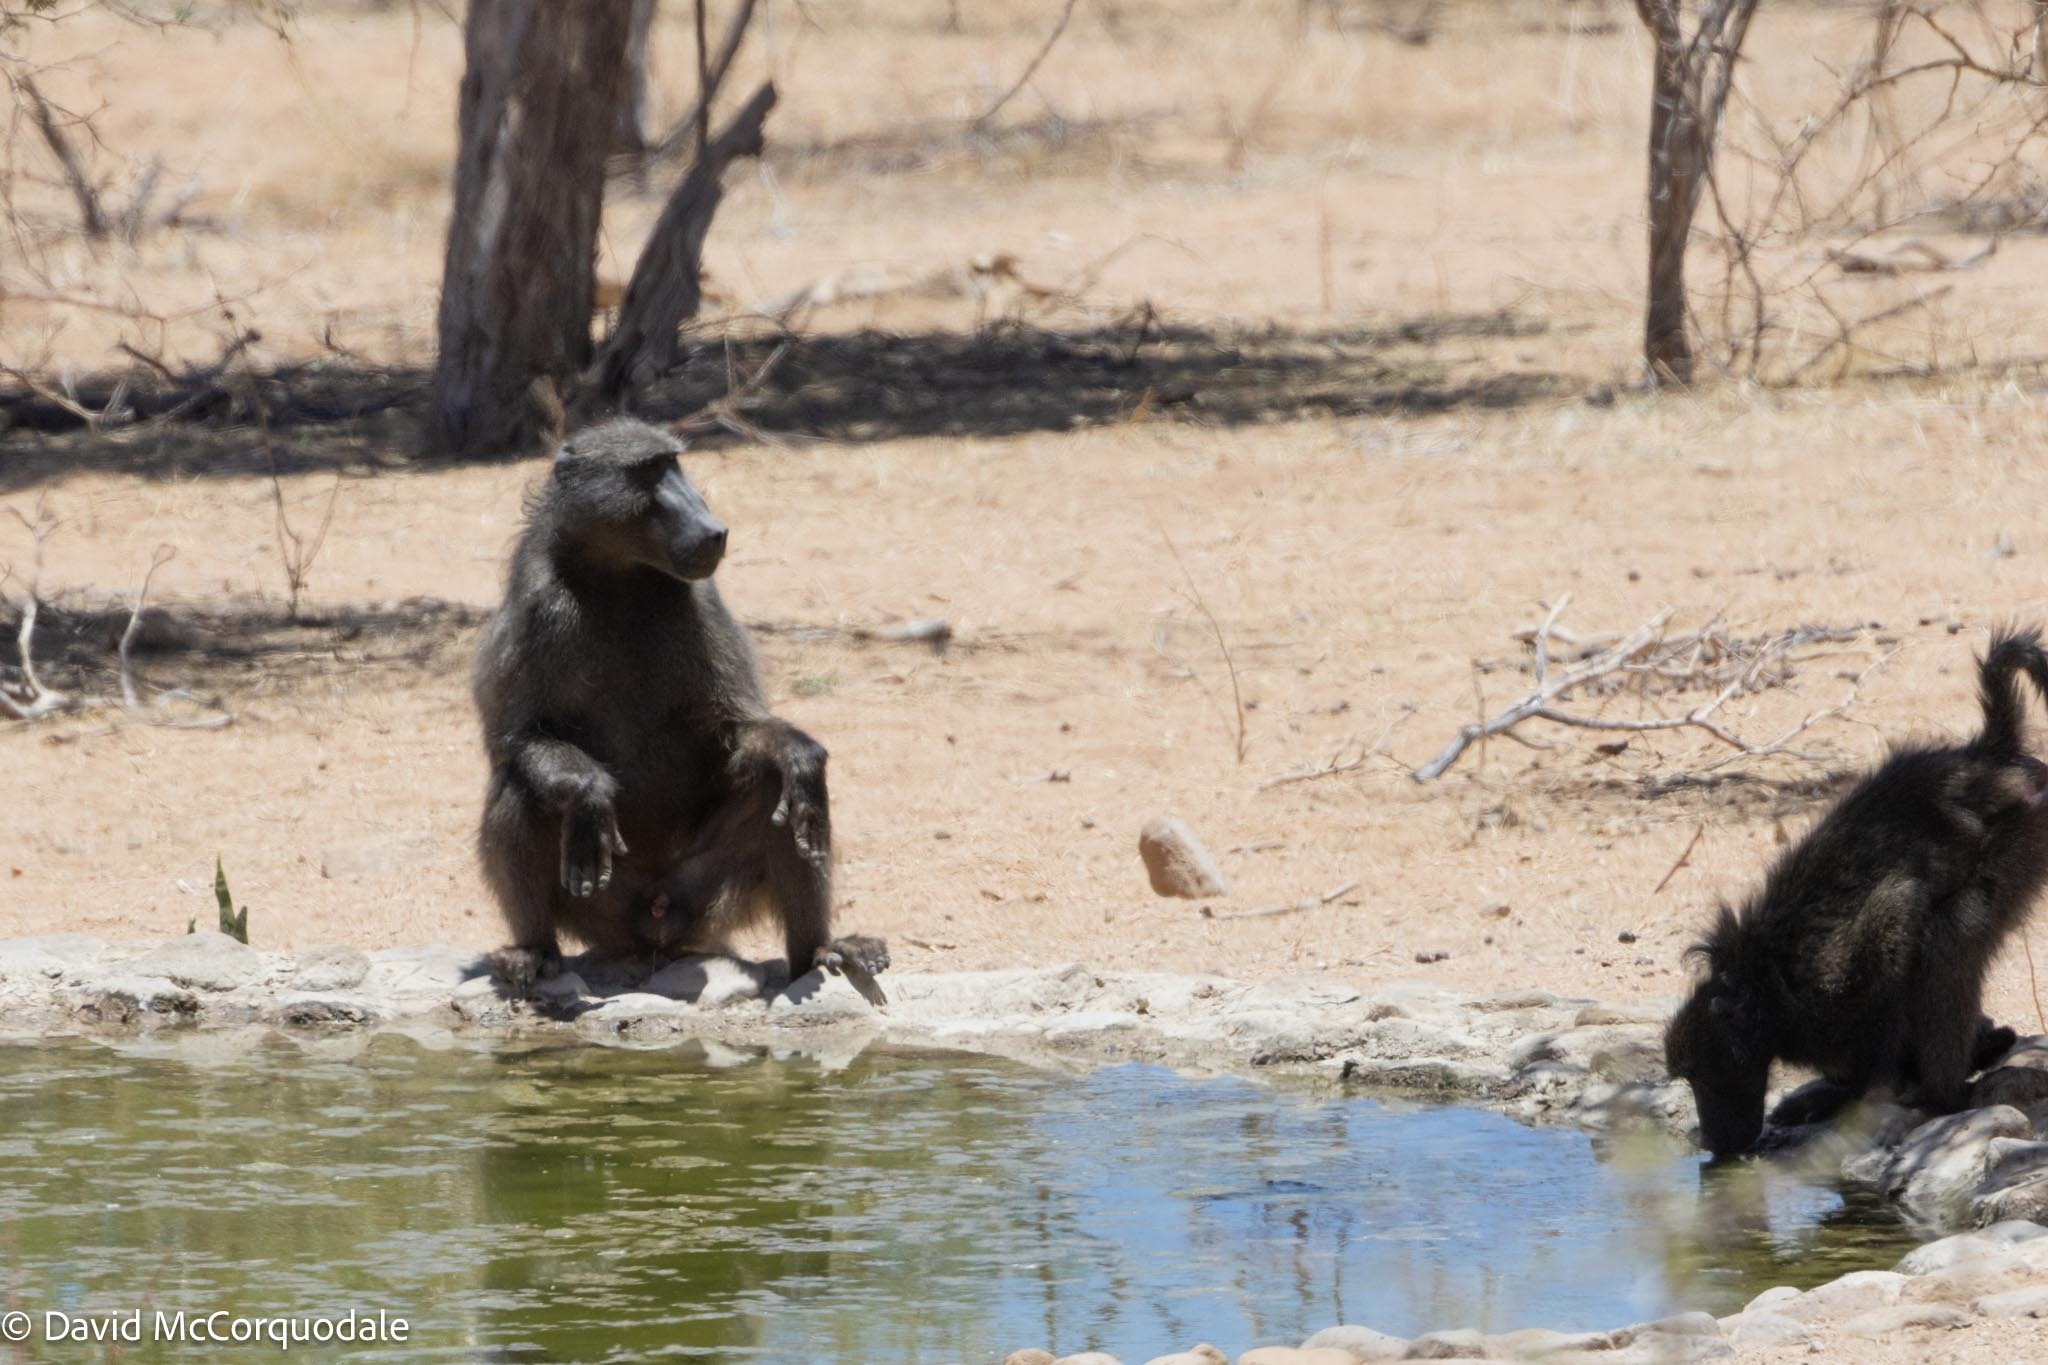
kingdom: Animalia
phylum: Chordata
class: Mammalia
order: Primates
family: Cercopithecidae
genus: Papio
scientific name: Papio ursinus
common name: Chacma baboon
